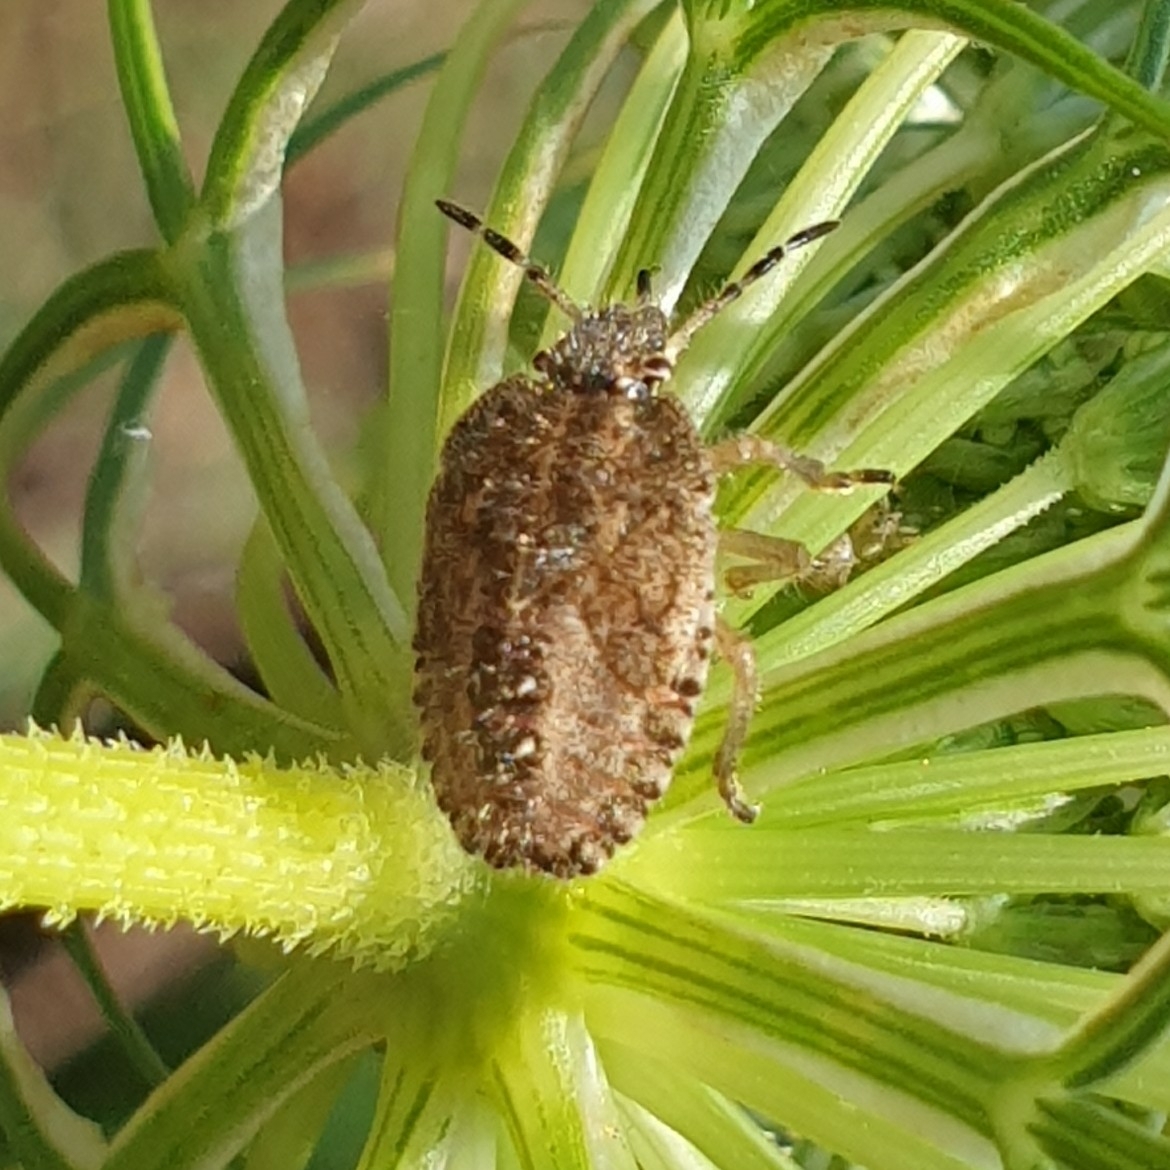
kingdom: Animalia
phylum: Arthropoda
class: Insecta
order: Hemiptera
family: Pentatomidae
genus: Dolycoris
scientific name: Dolycoris baccarum
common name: Sloe bug
